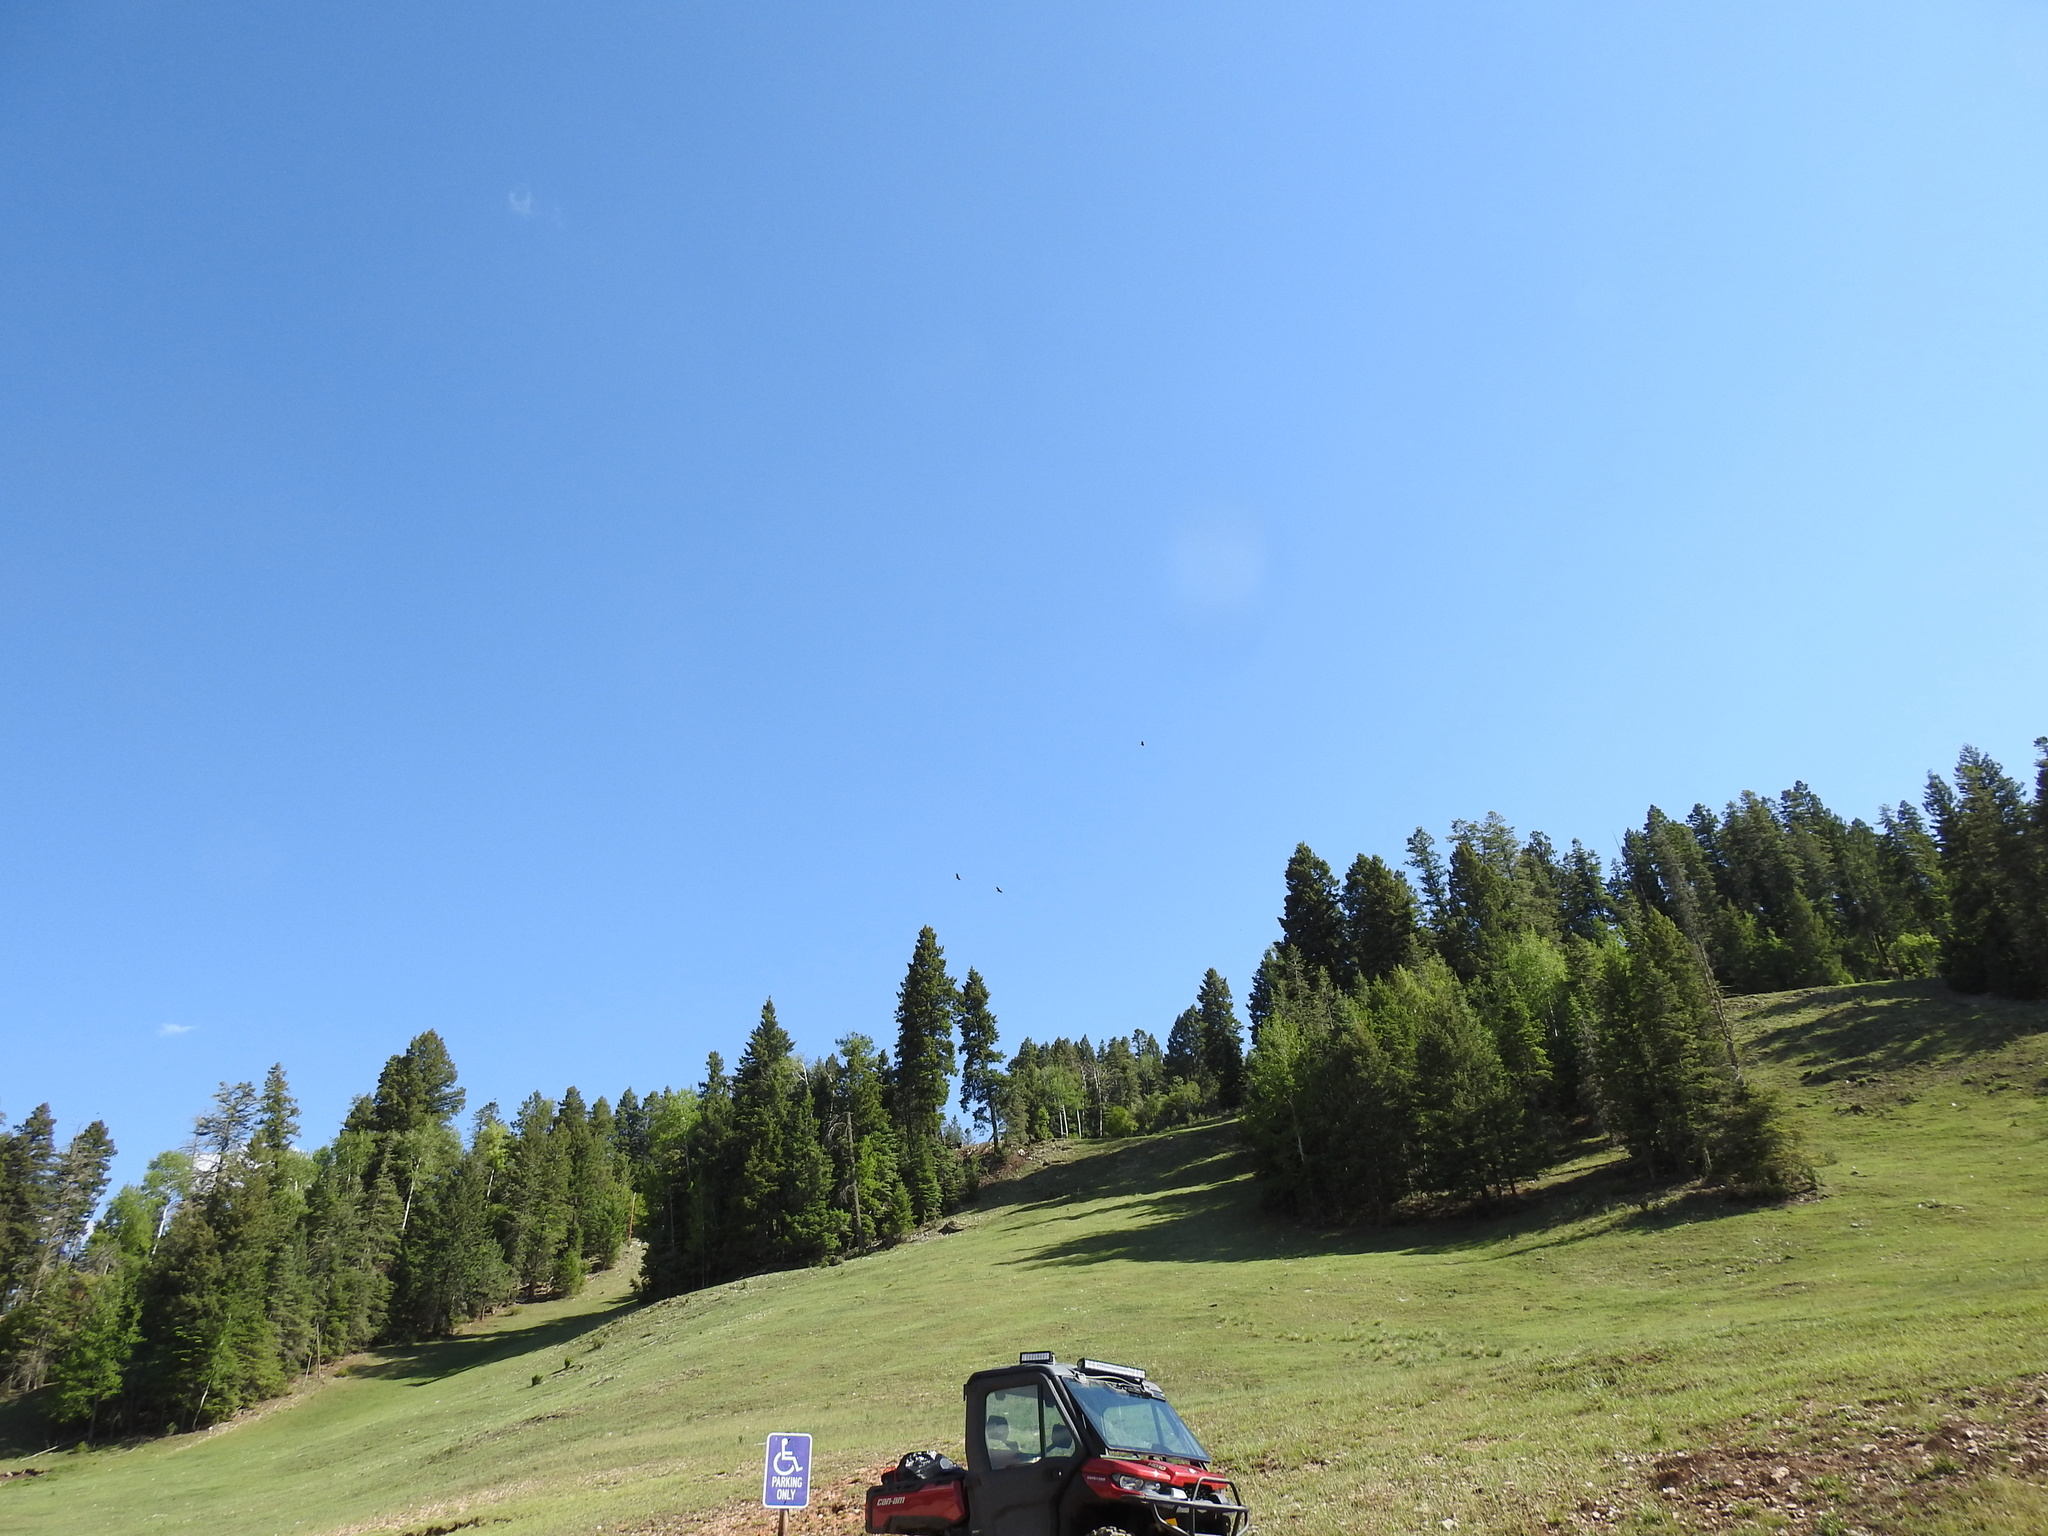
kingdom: Animalia
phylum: Chordata
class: Aves
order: Accipitriformes
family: Cathartidae
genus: Cathartes
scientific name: Cathartes aura
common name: Turkey vulture
